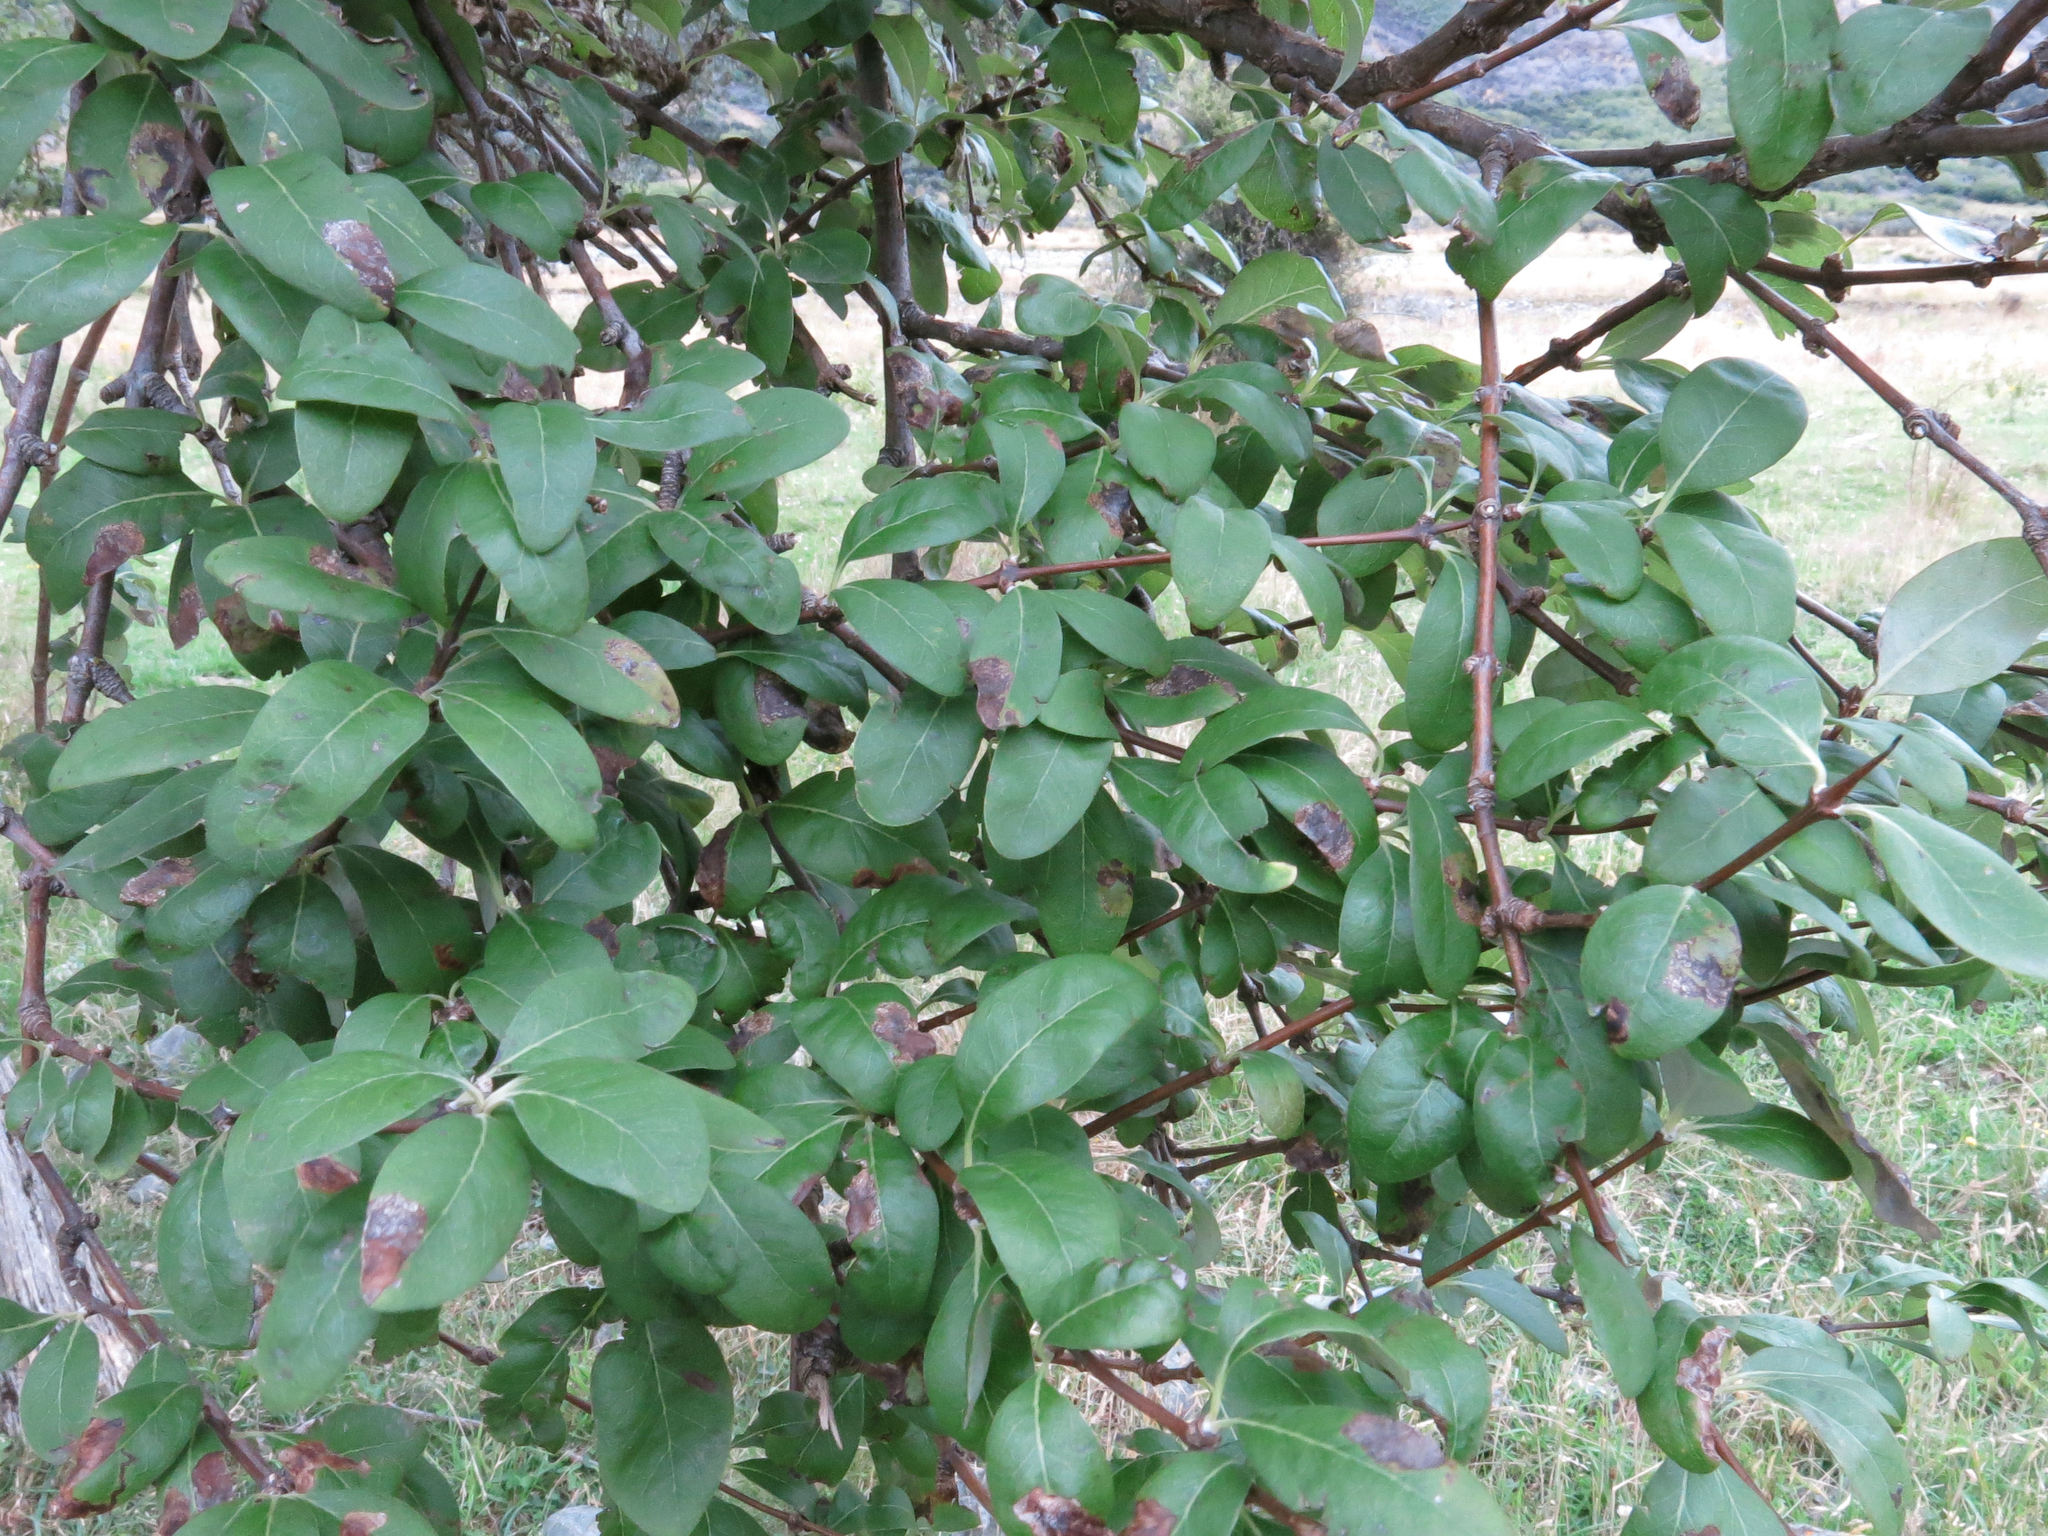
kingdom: Plantae
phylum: Tracheophyta
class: Magnoliopsida
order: Asterales
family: Asteraceae
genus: Olearia
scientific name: Olearia hectorii
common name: Deciduous tree daisy
